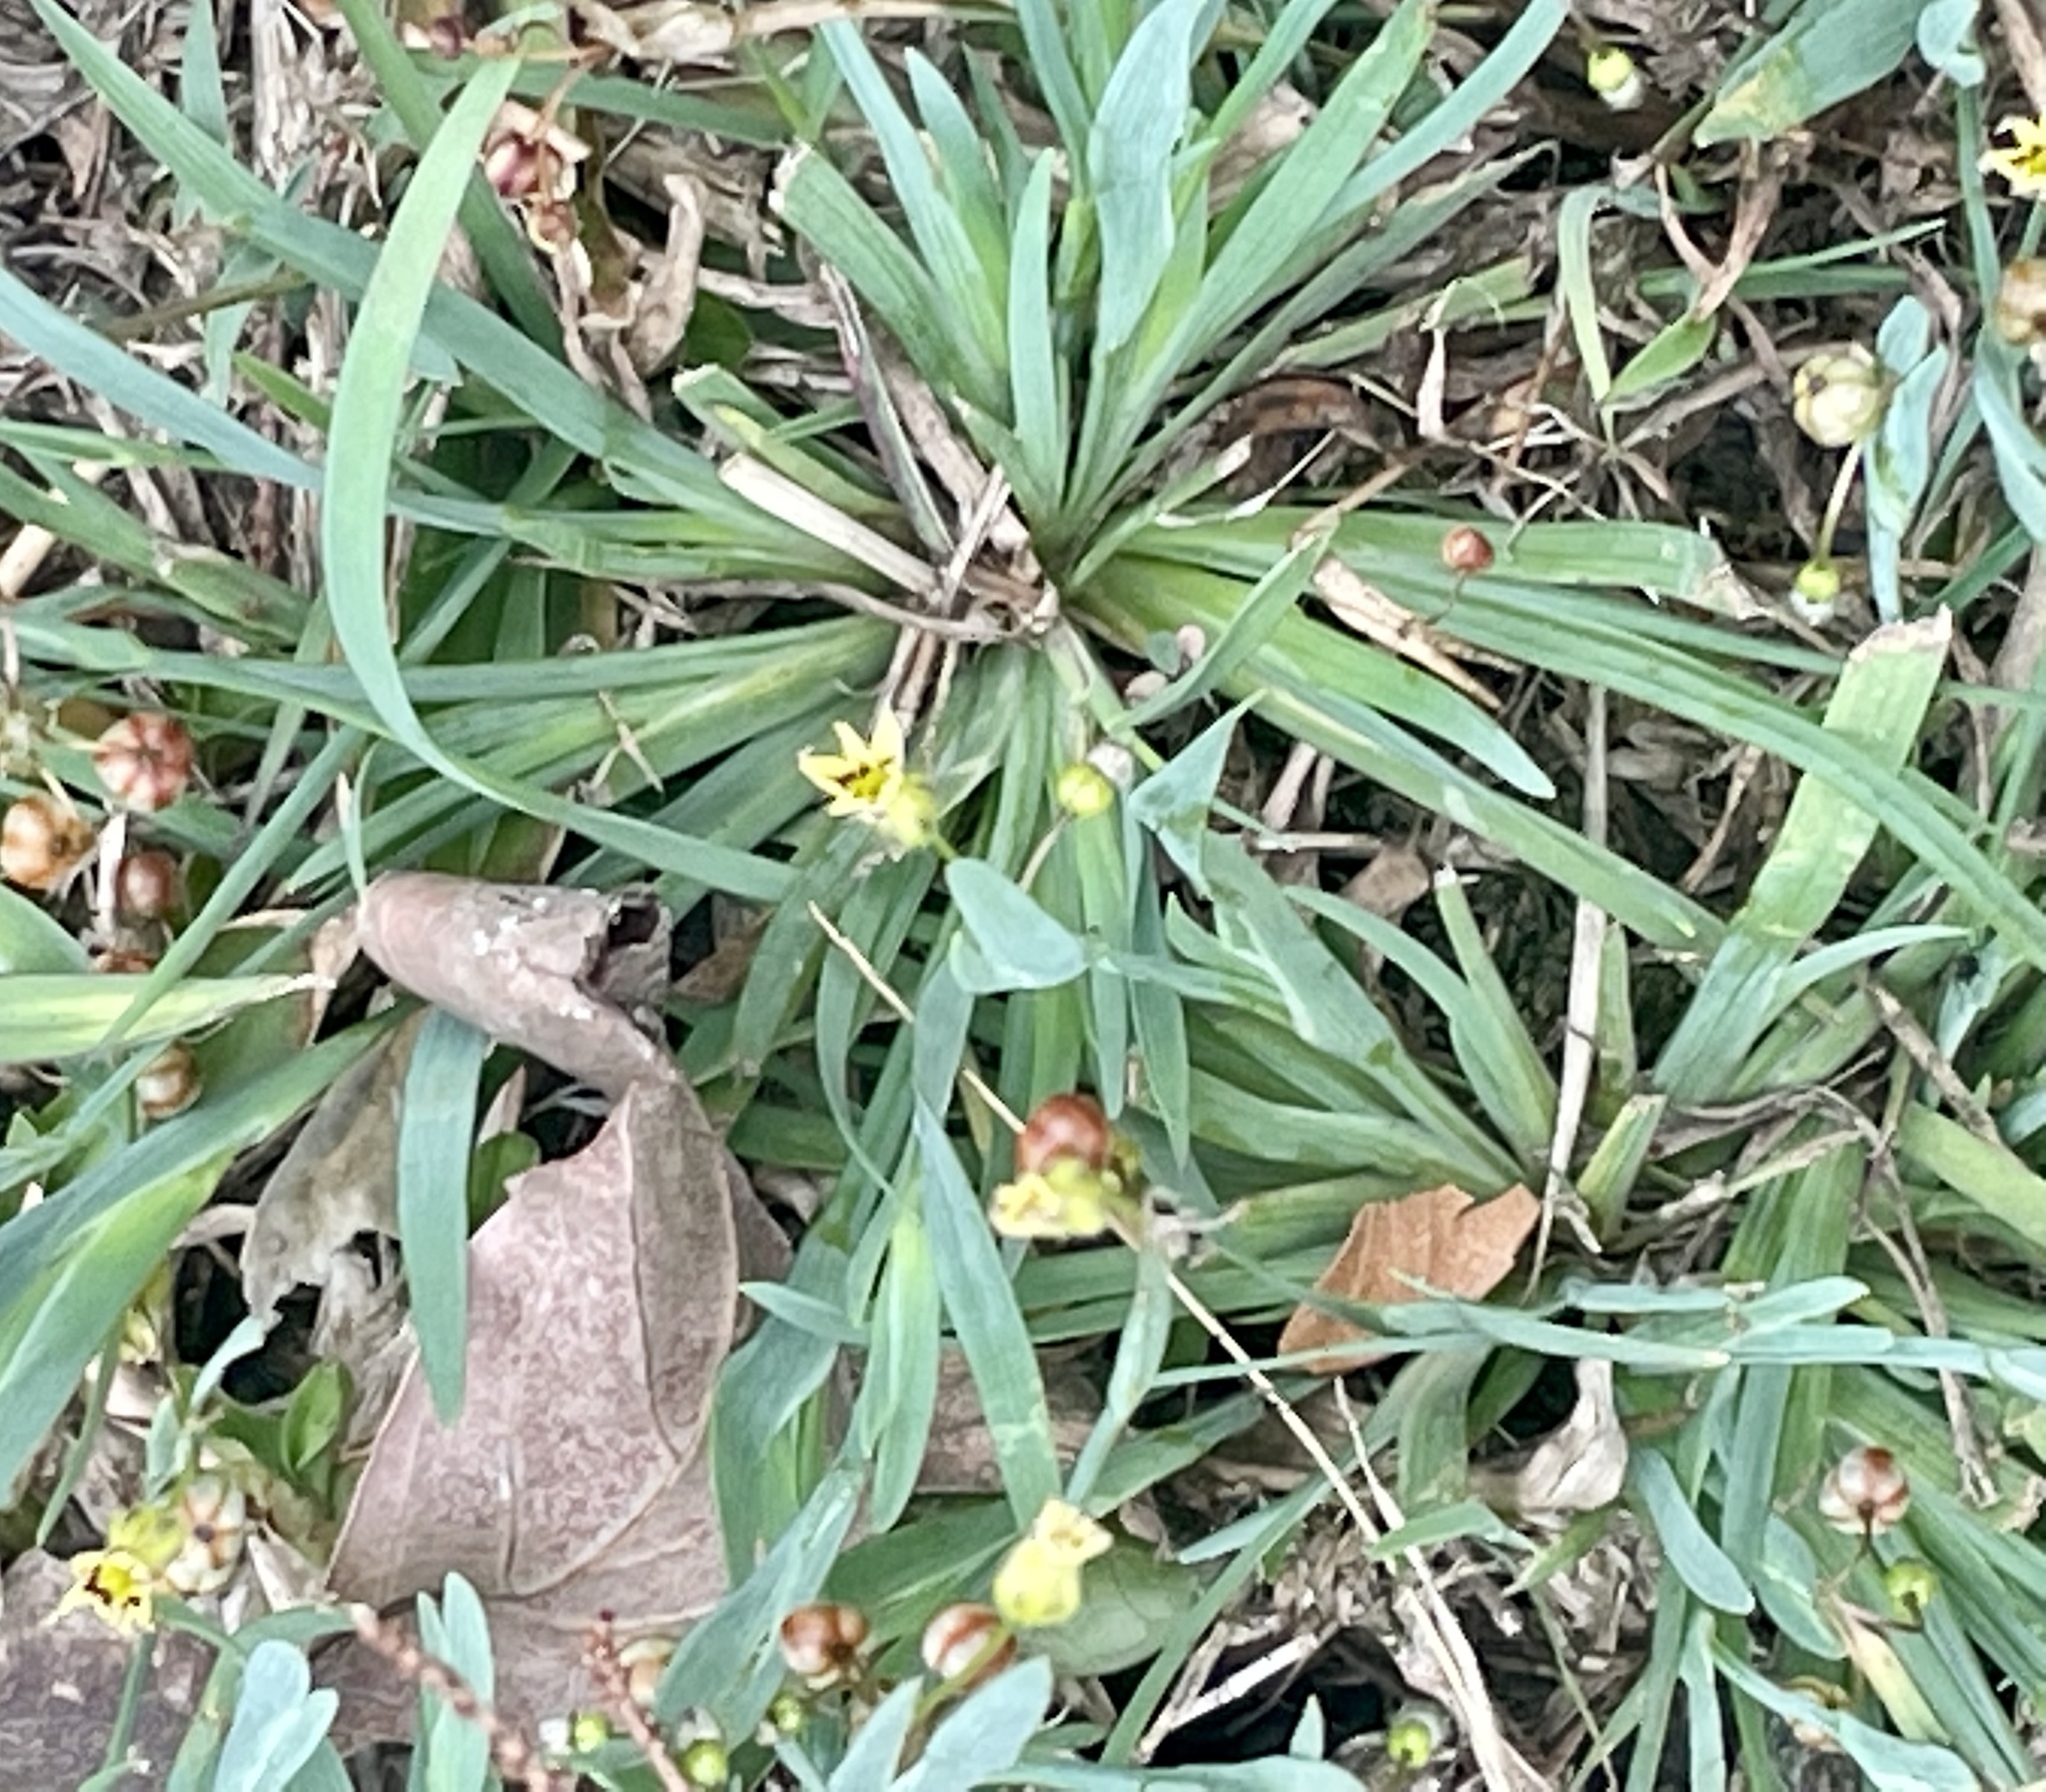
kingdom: Plantae
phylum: Tracheophyta
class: Liliopsida
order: Asparagales
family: Iridaceae
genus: Sisyrinchium
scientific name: Sisyrinchium micranthum
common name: Bermuda pigroot
